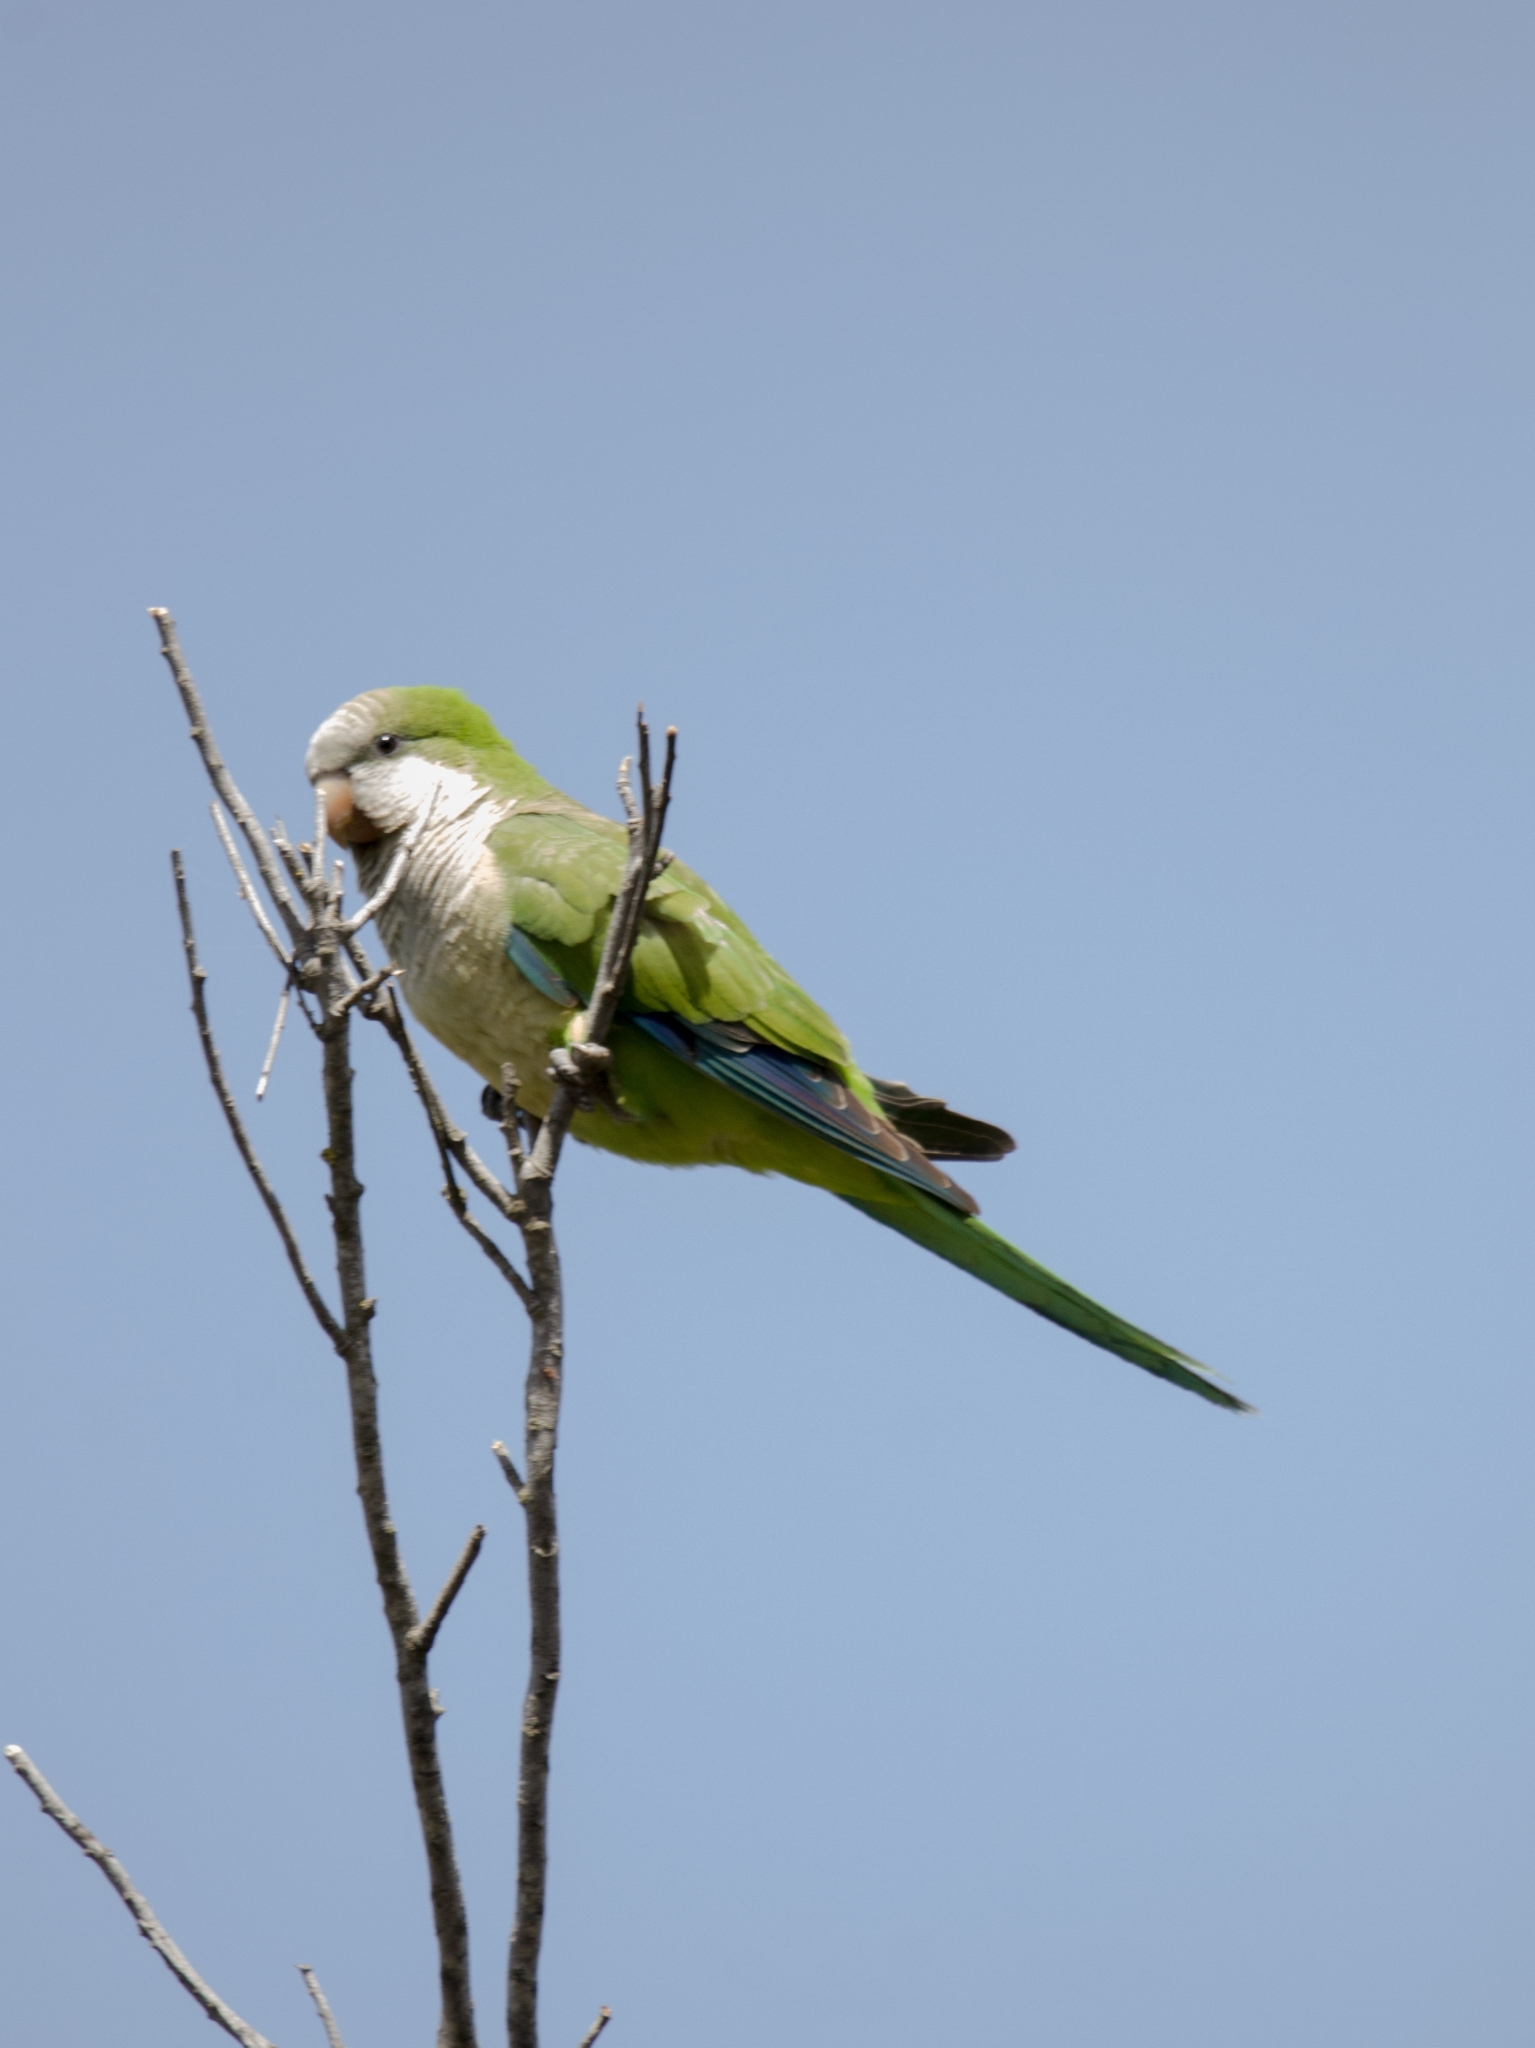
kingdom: Animalia
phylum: Chordata
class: Aves
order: Psittaciformes
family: Psittacidae
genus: Myiopsitta
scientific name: Myiopsitta monachus
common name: Monk parakeet
